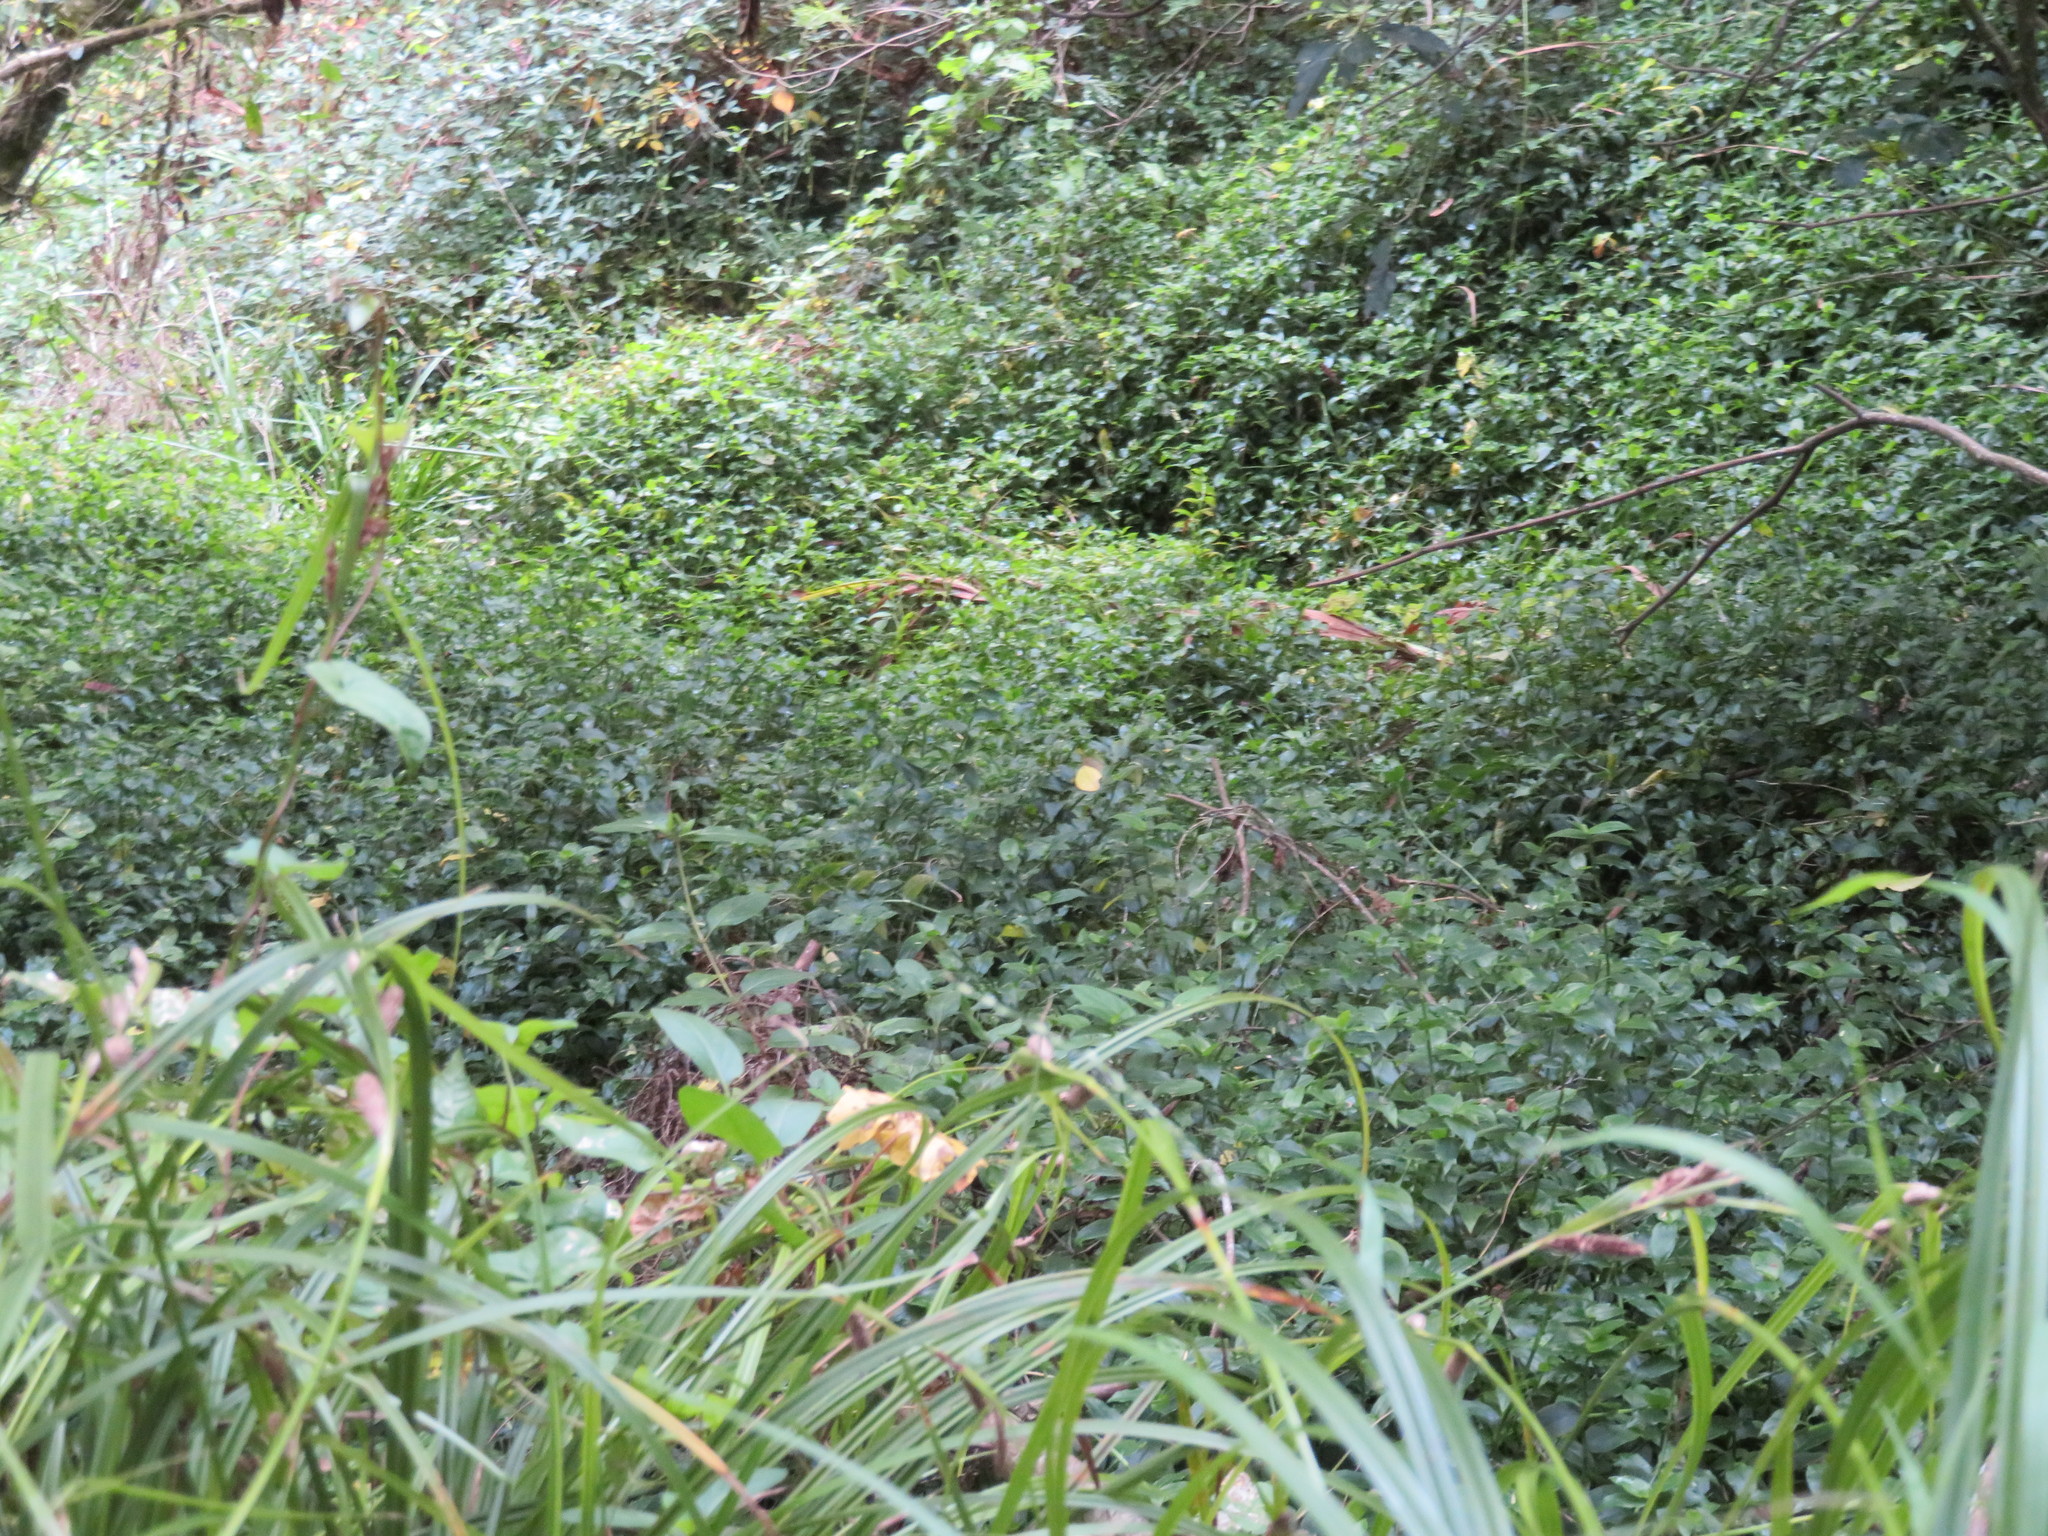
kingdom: Plantae
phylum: Tracheophyta
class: Liliopsida
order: Poales
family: Cyperaceae
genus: Carex
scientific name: Carex lambertiana
